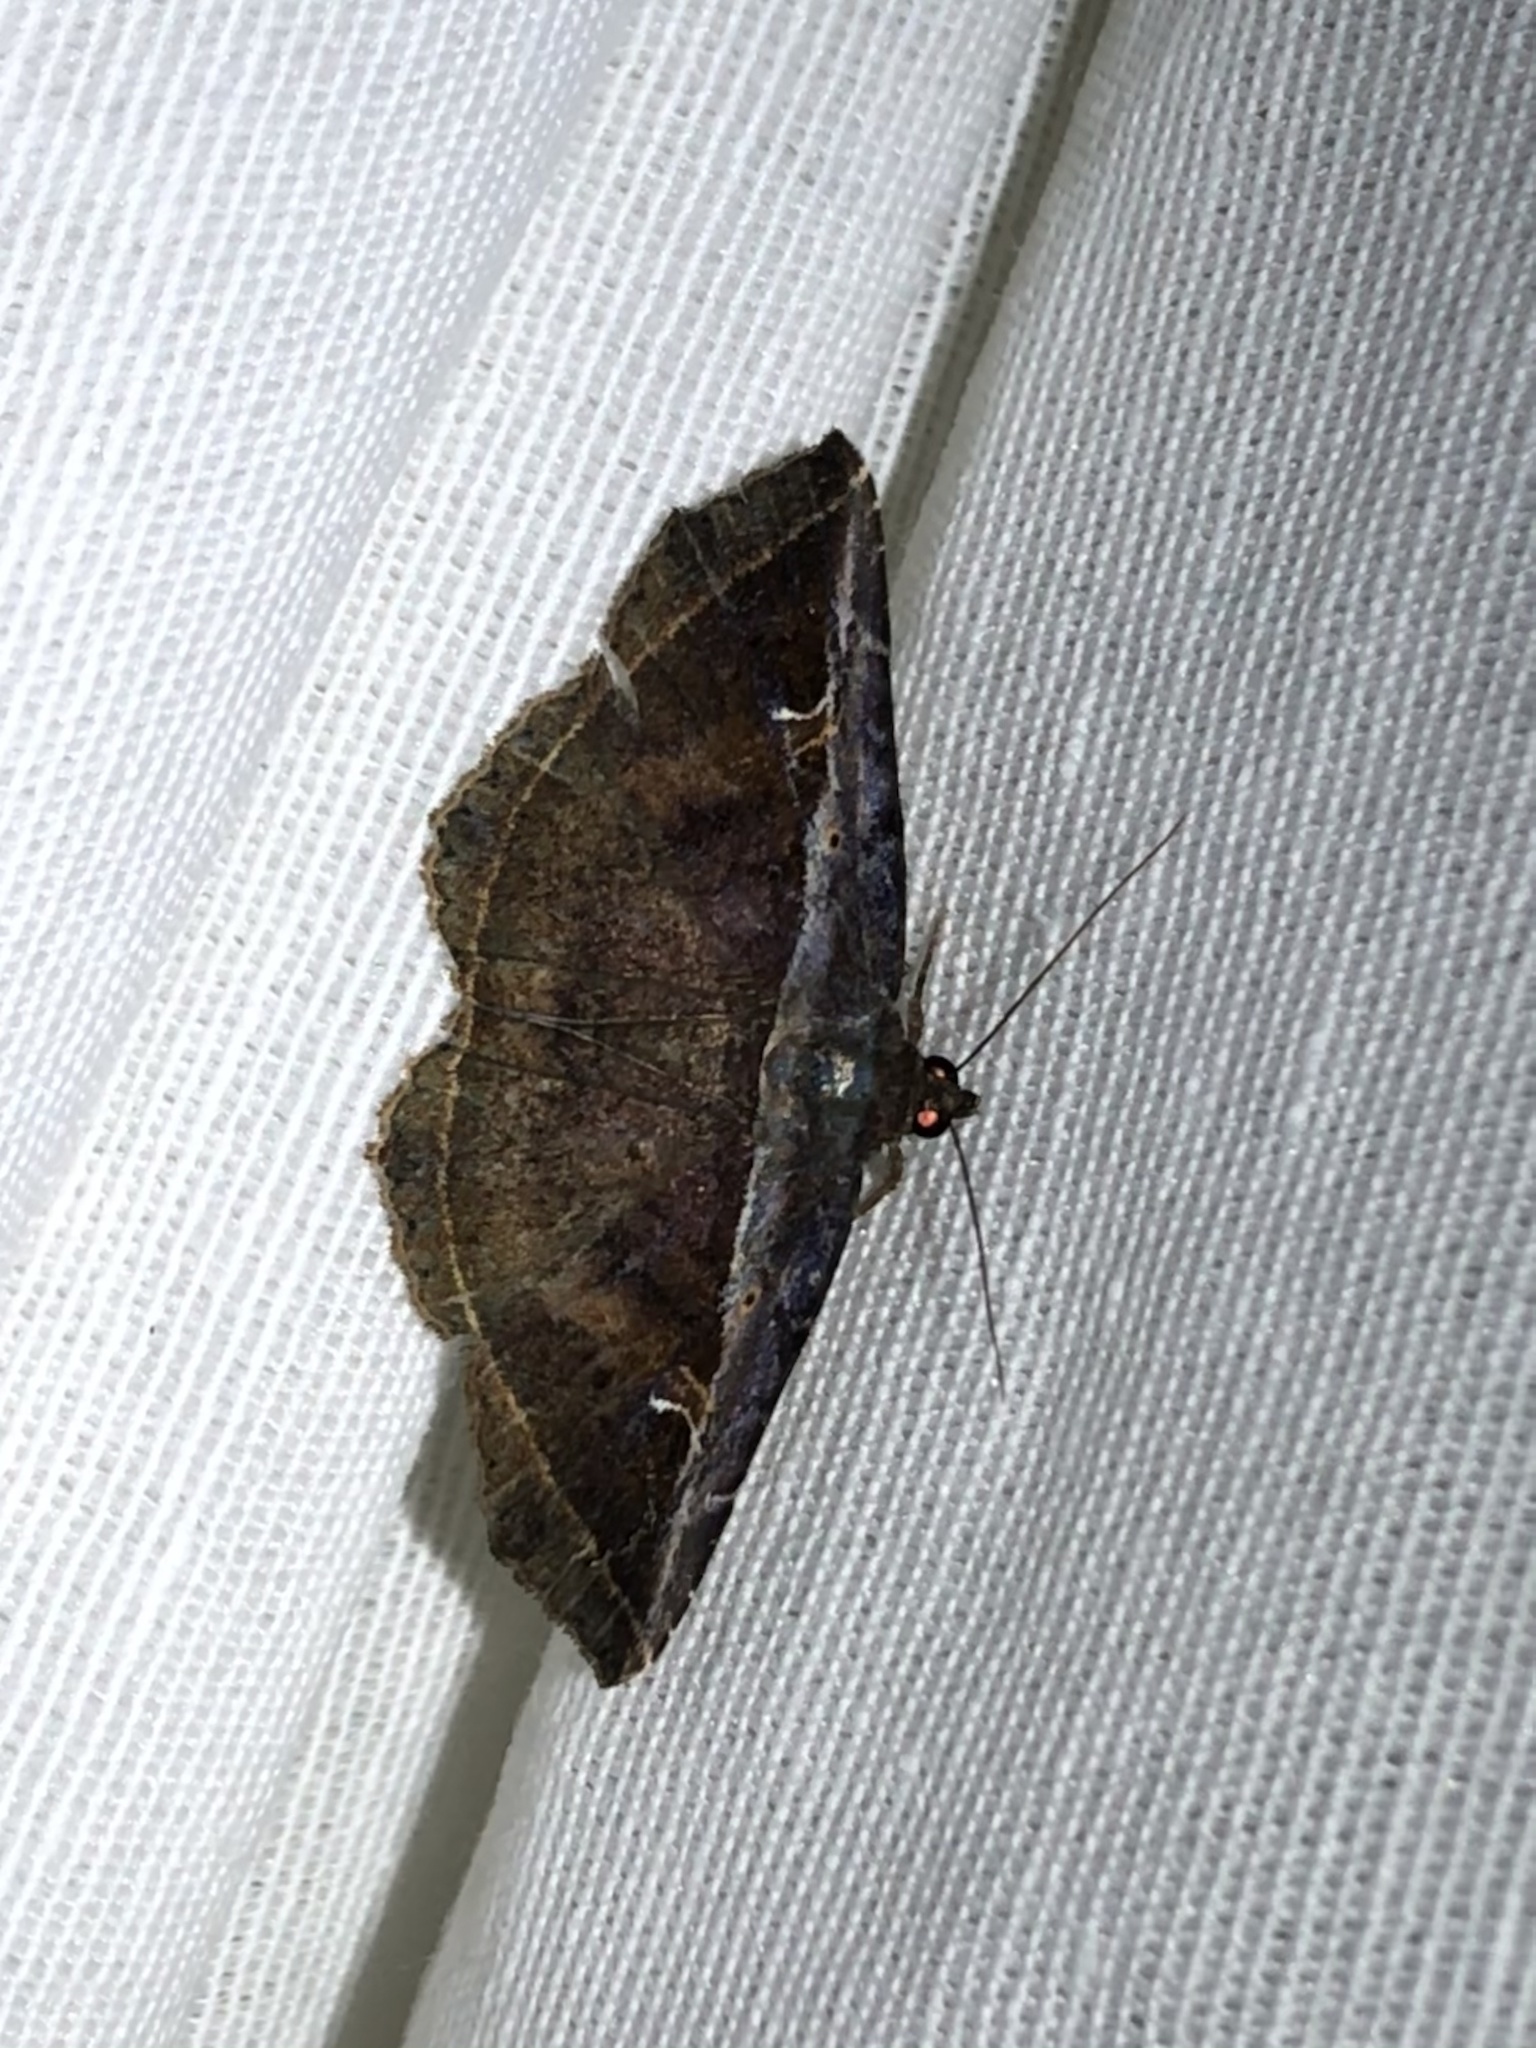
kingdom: Animalia
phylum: Arthropoda
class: Insecta
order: Lepidoptera
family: Erebidae
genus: Peteroma
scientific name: Peteroma albilinea
